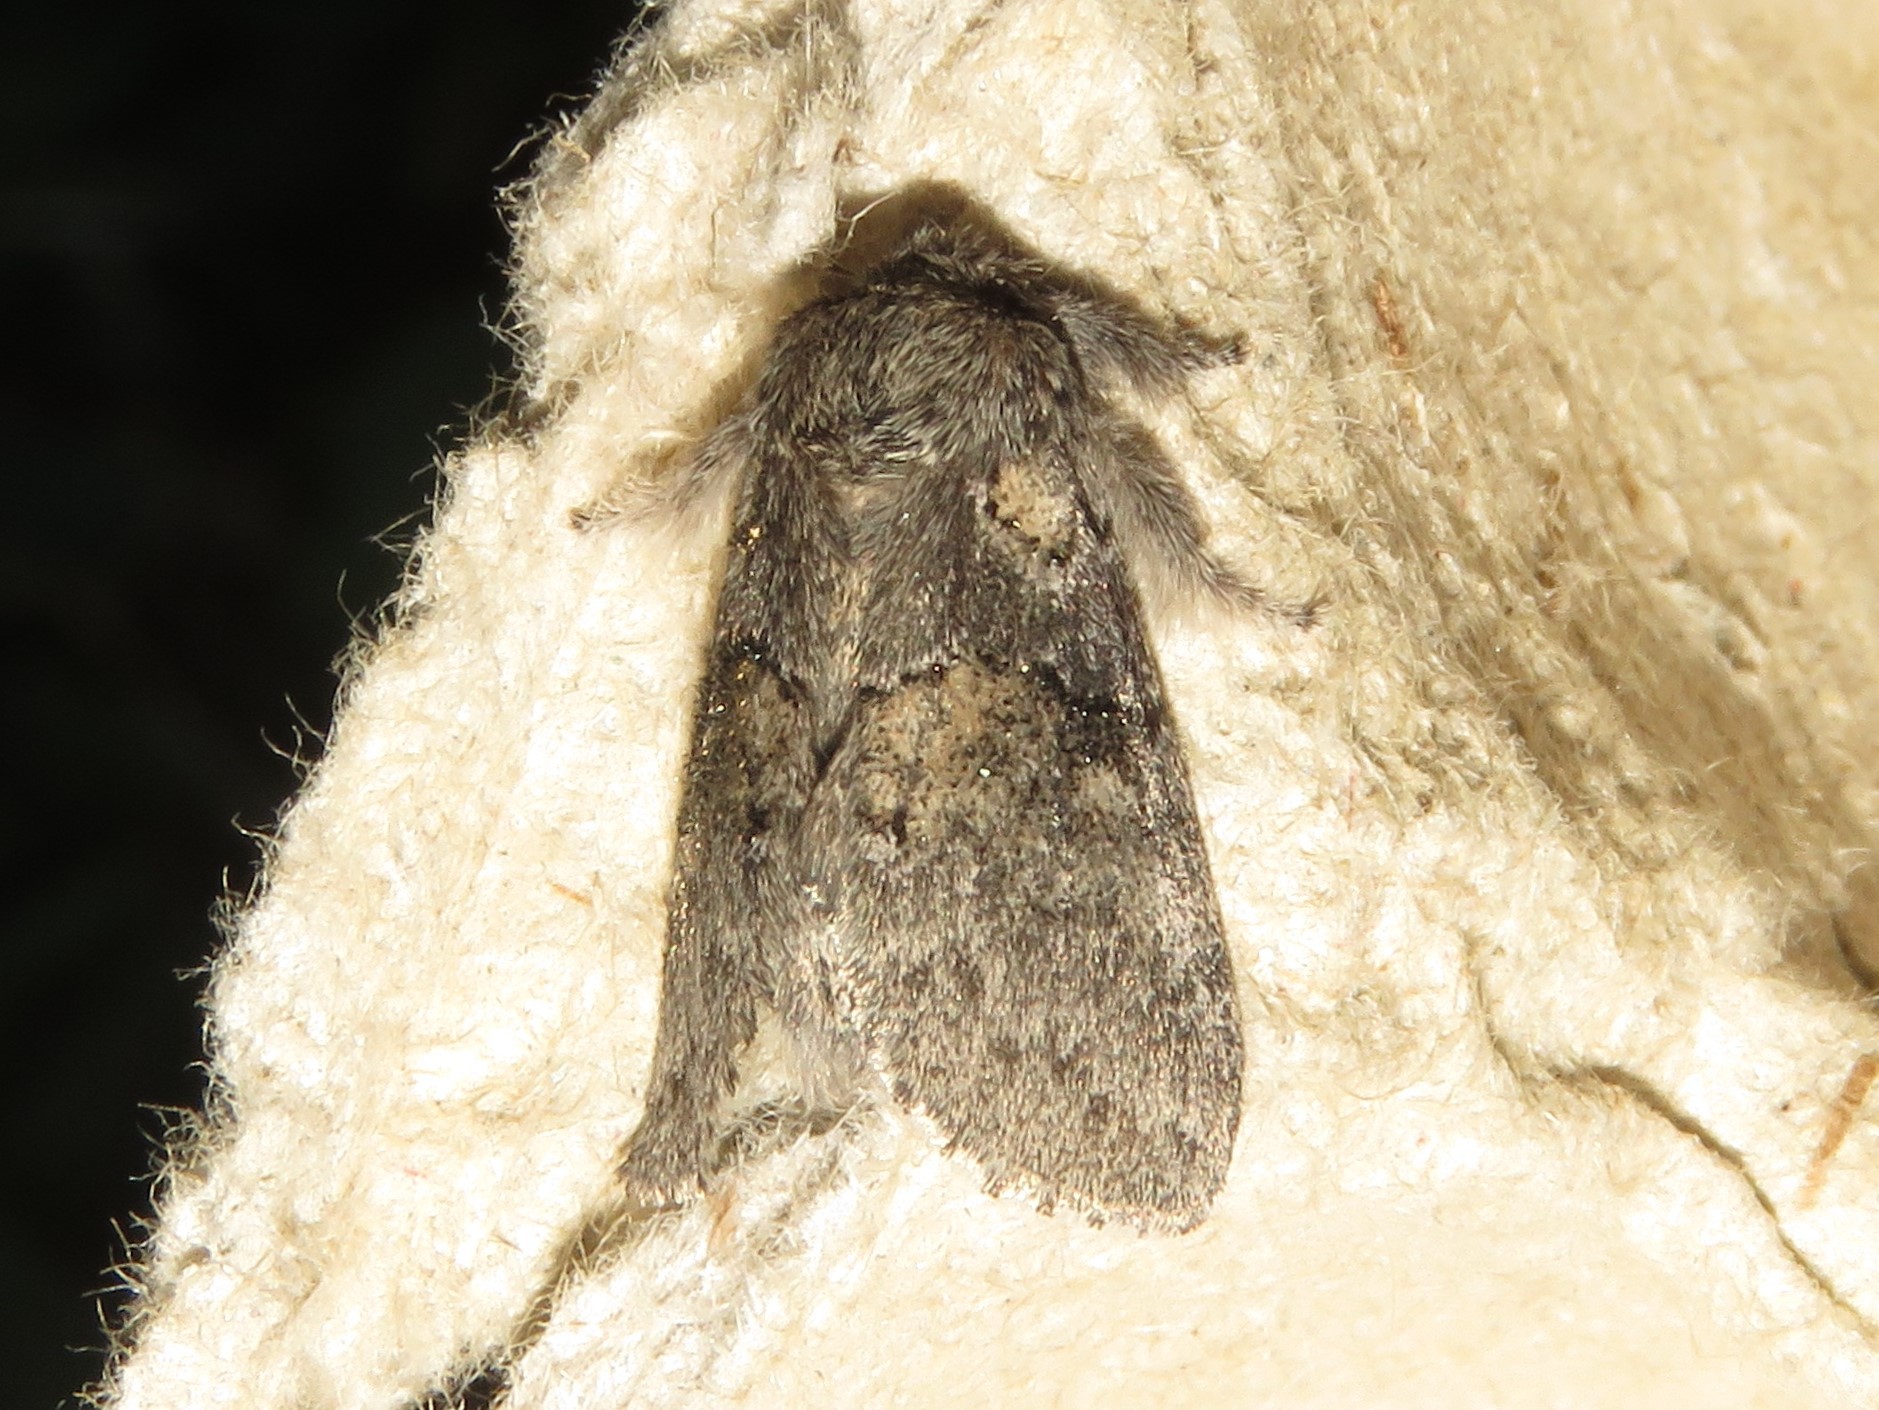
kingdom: Animalia
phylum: Arthropoda
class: Insecta
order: Lepidoptera
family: Notodontidae
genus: Gluphisia
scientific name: Gluphisia septentrionis
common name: Common gluphisia
